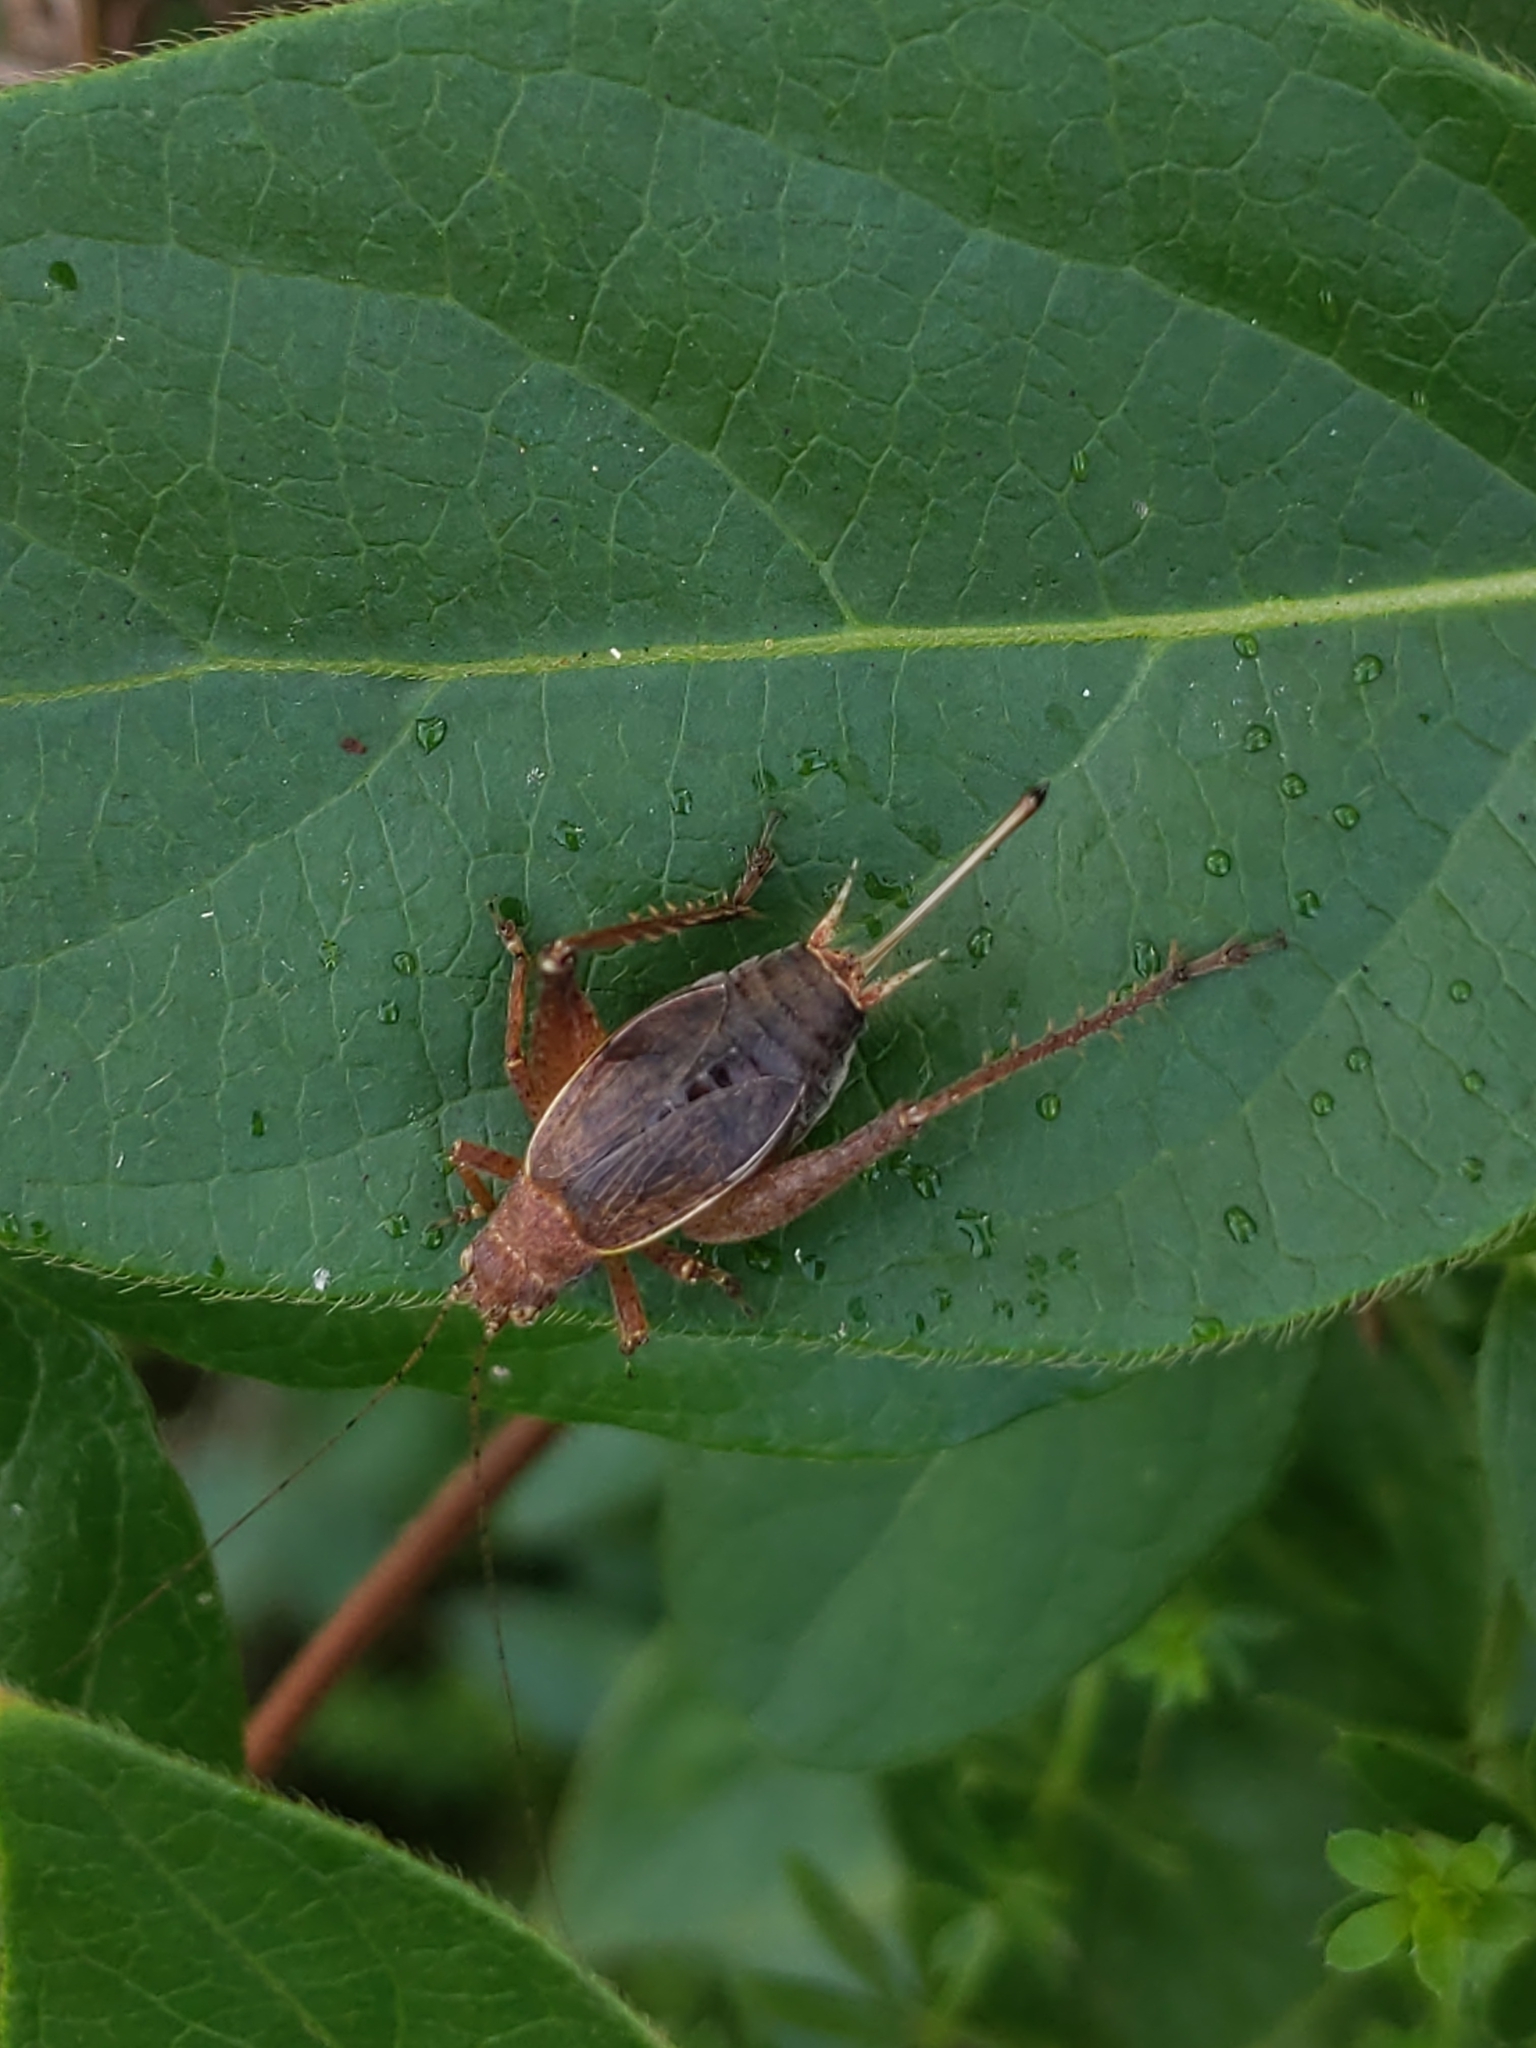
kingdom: Animalia
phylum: Arthropoda
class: Insecta
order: Orthoptera
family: Gryllidae
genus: Hapithus
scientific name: Hapithus agitator
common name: Restless bush cricket
